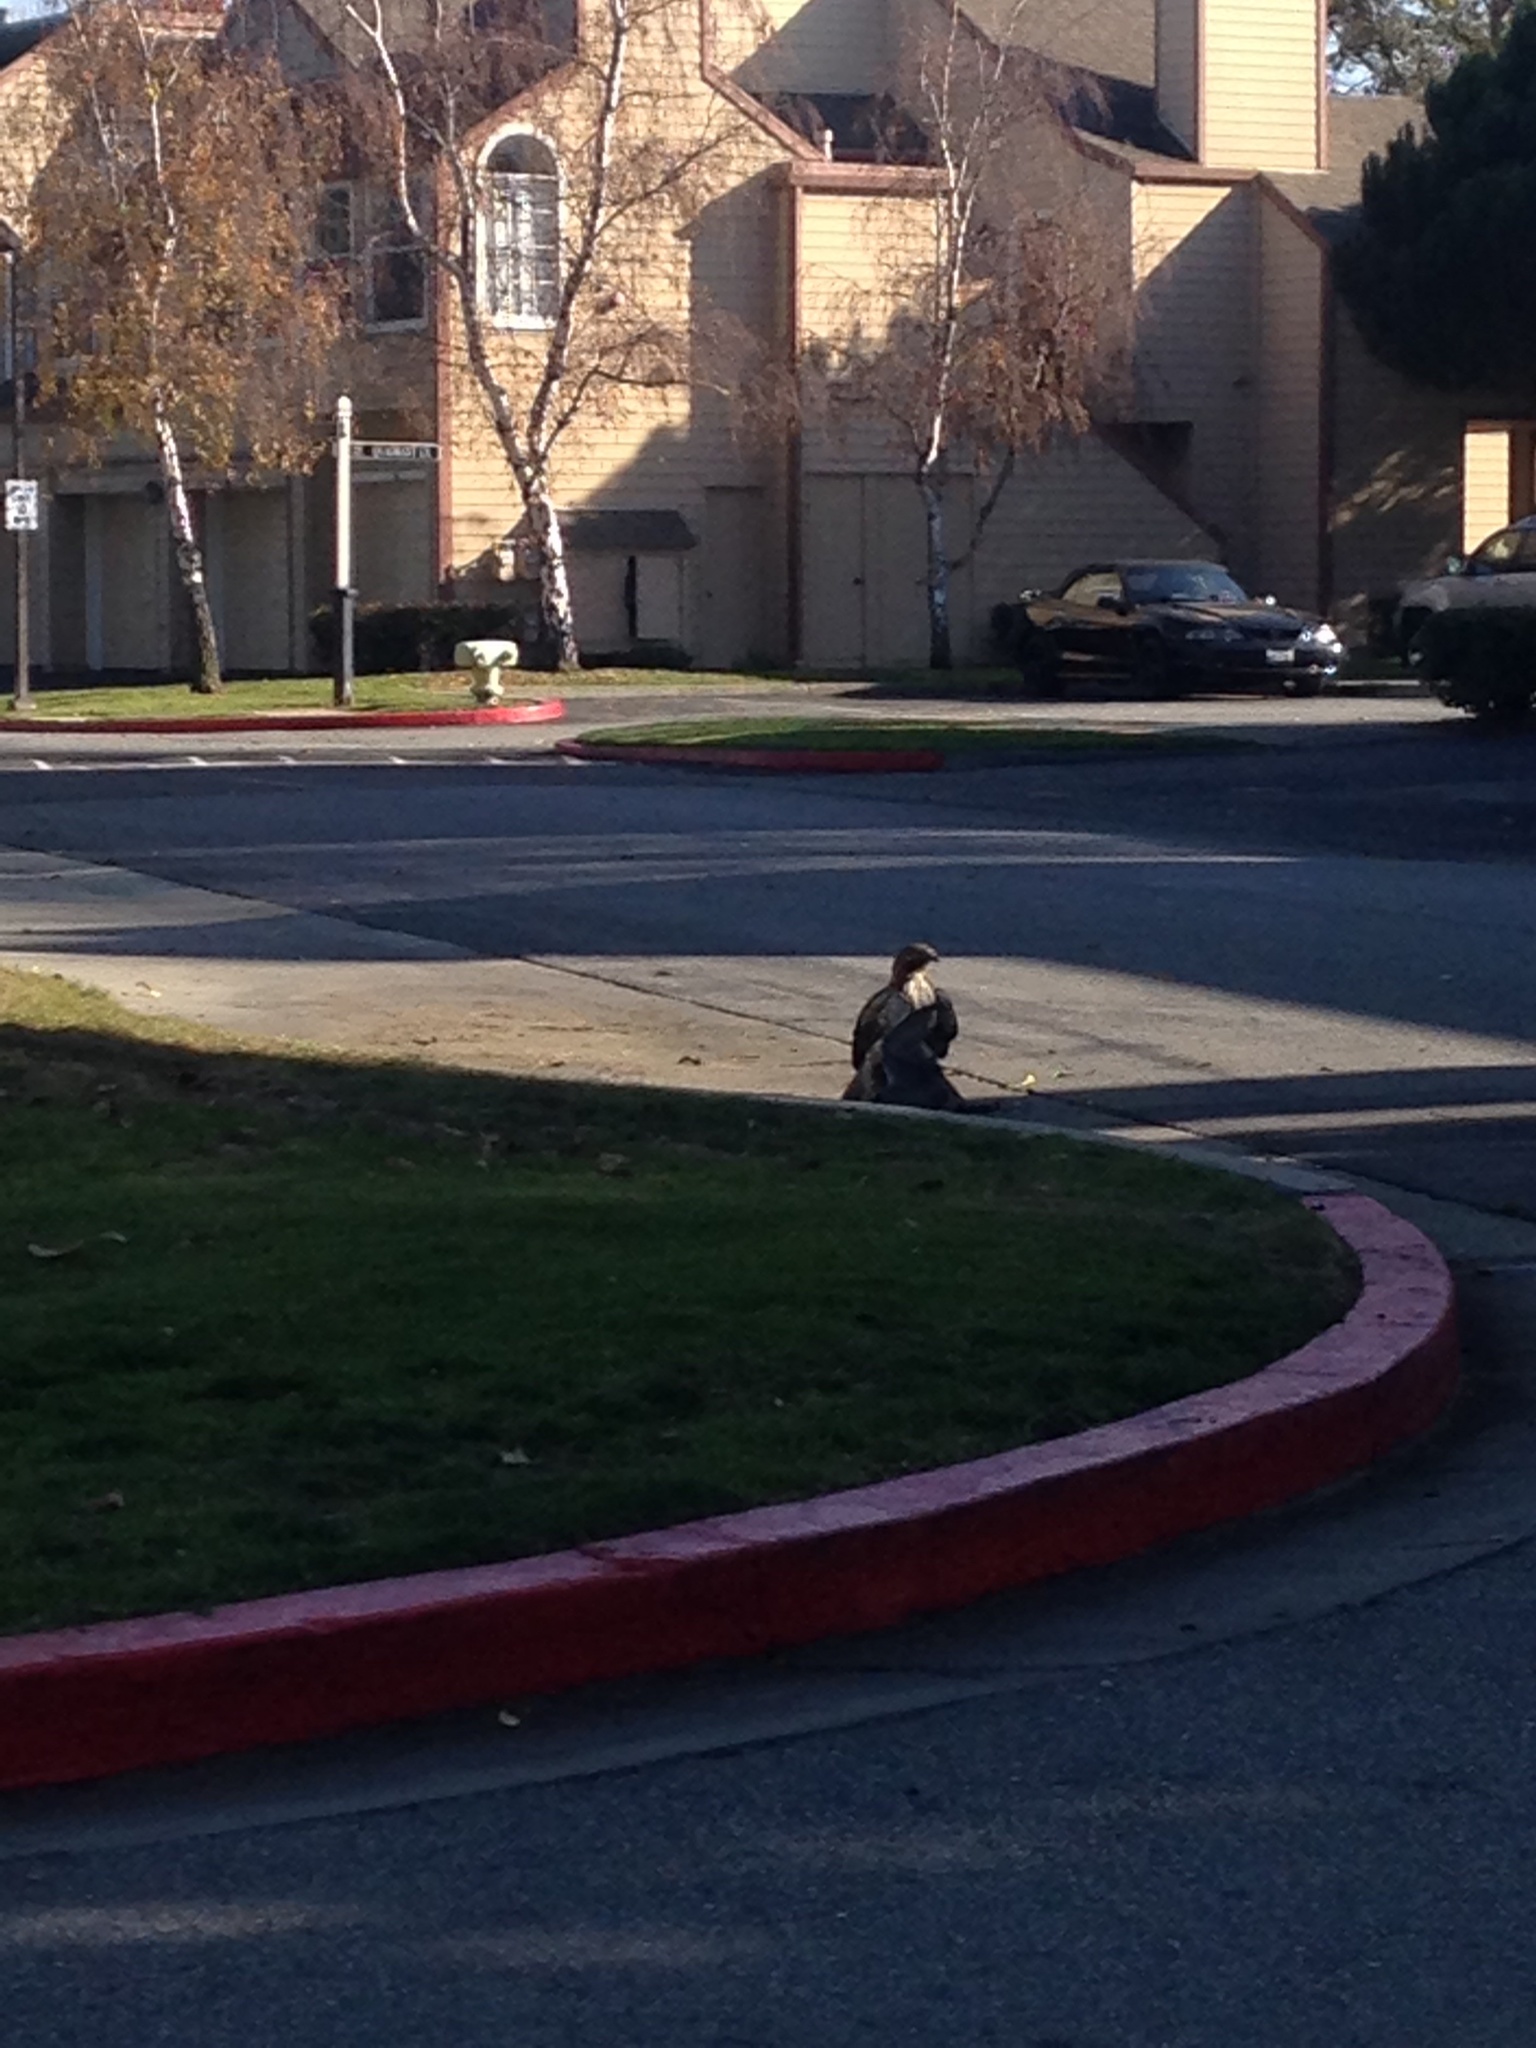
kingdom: Animalia
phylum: Chordata
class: Aves
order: Accipitriformes
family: Accipitridae
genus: Buteo
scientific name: Buteo jamaicensis
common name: Red-tailed hawk
